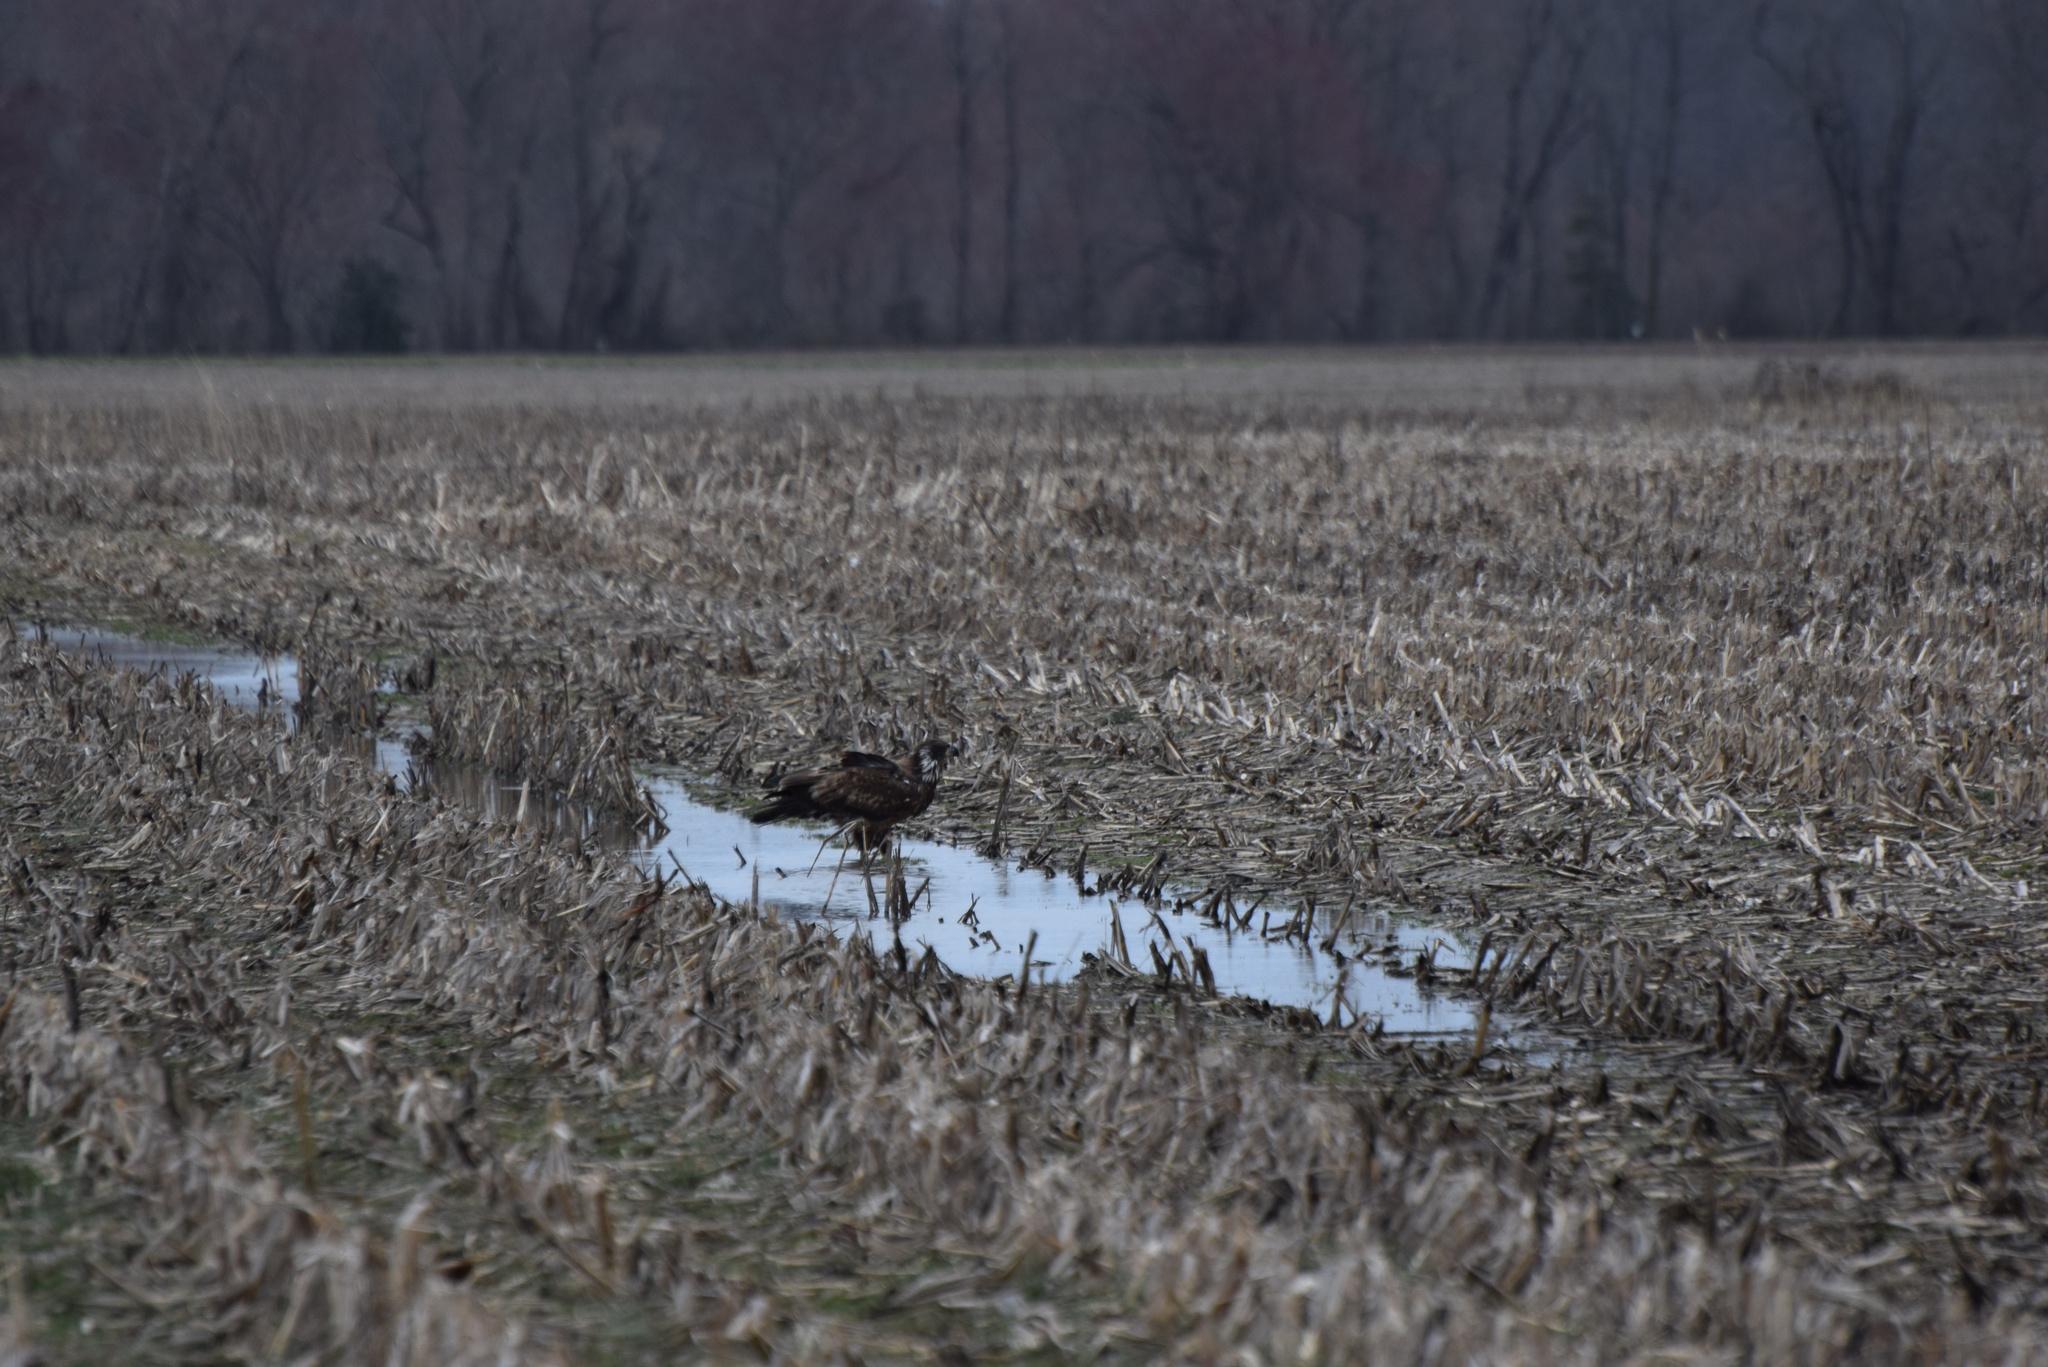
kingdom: Animalia
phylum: Chordata
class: Aves
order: Accipitriformes
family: Accipitridae
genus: Haliaeetus
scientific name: Haliaeetus leucocephalus
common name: Bald eagle
